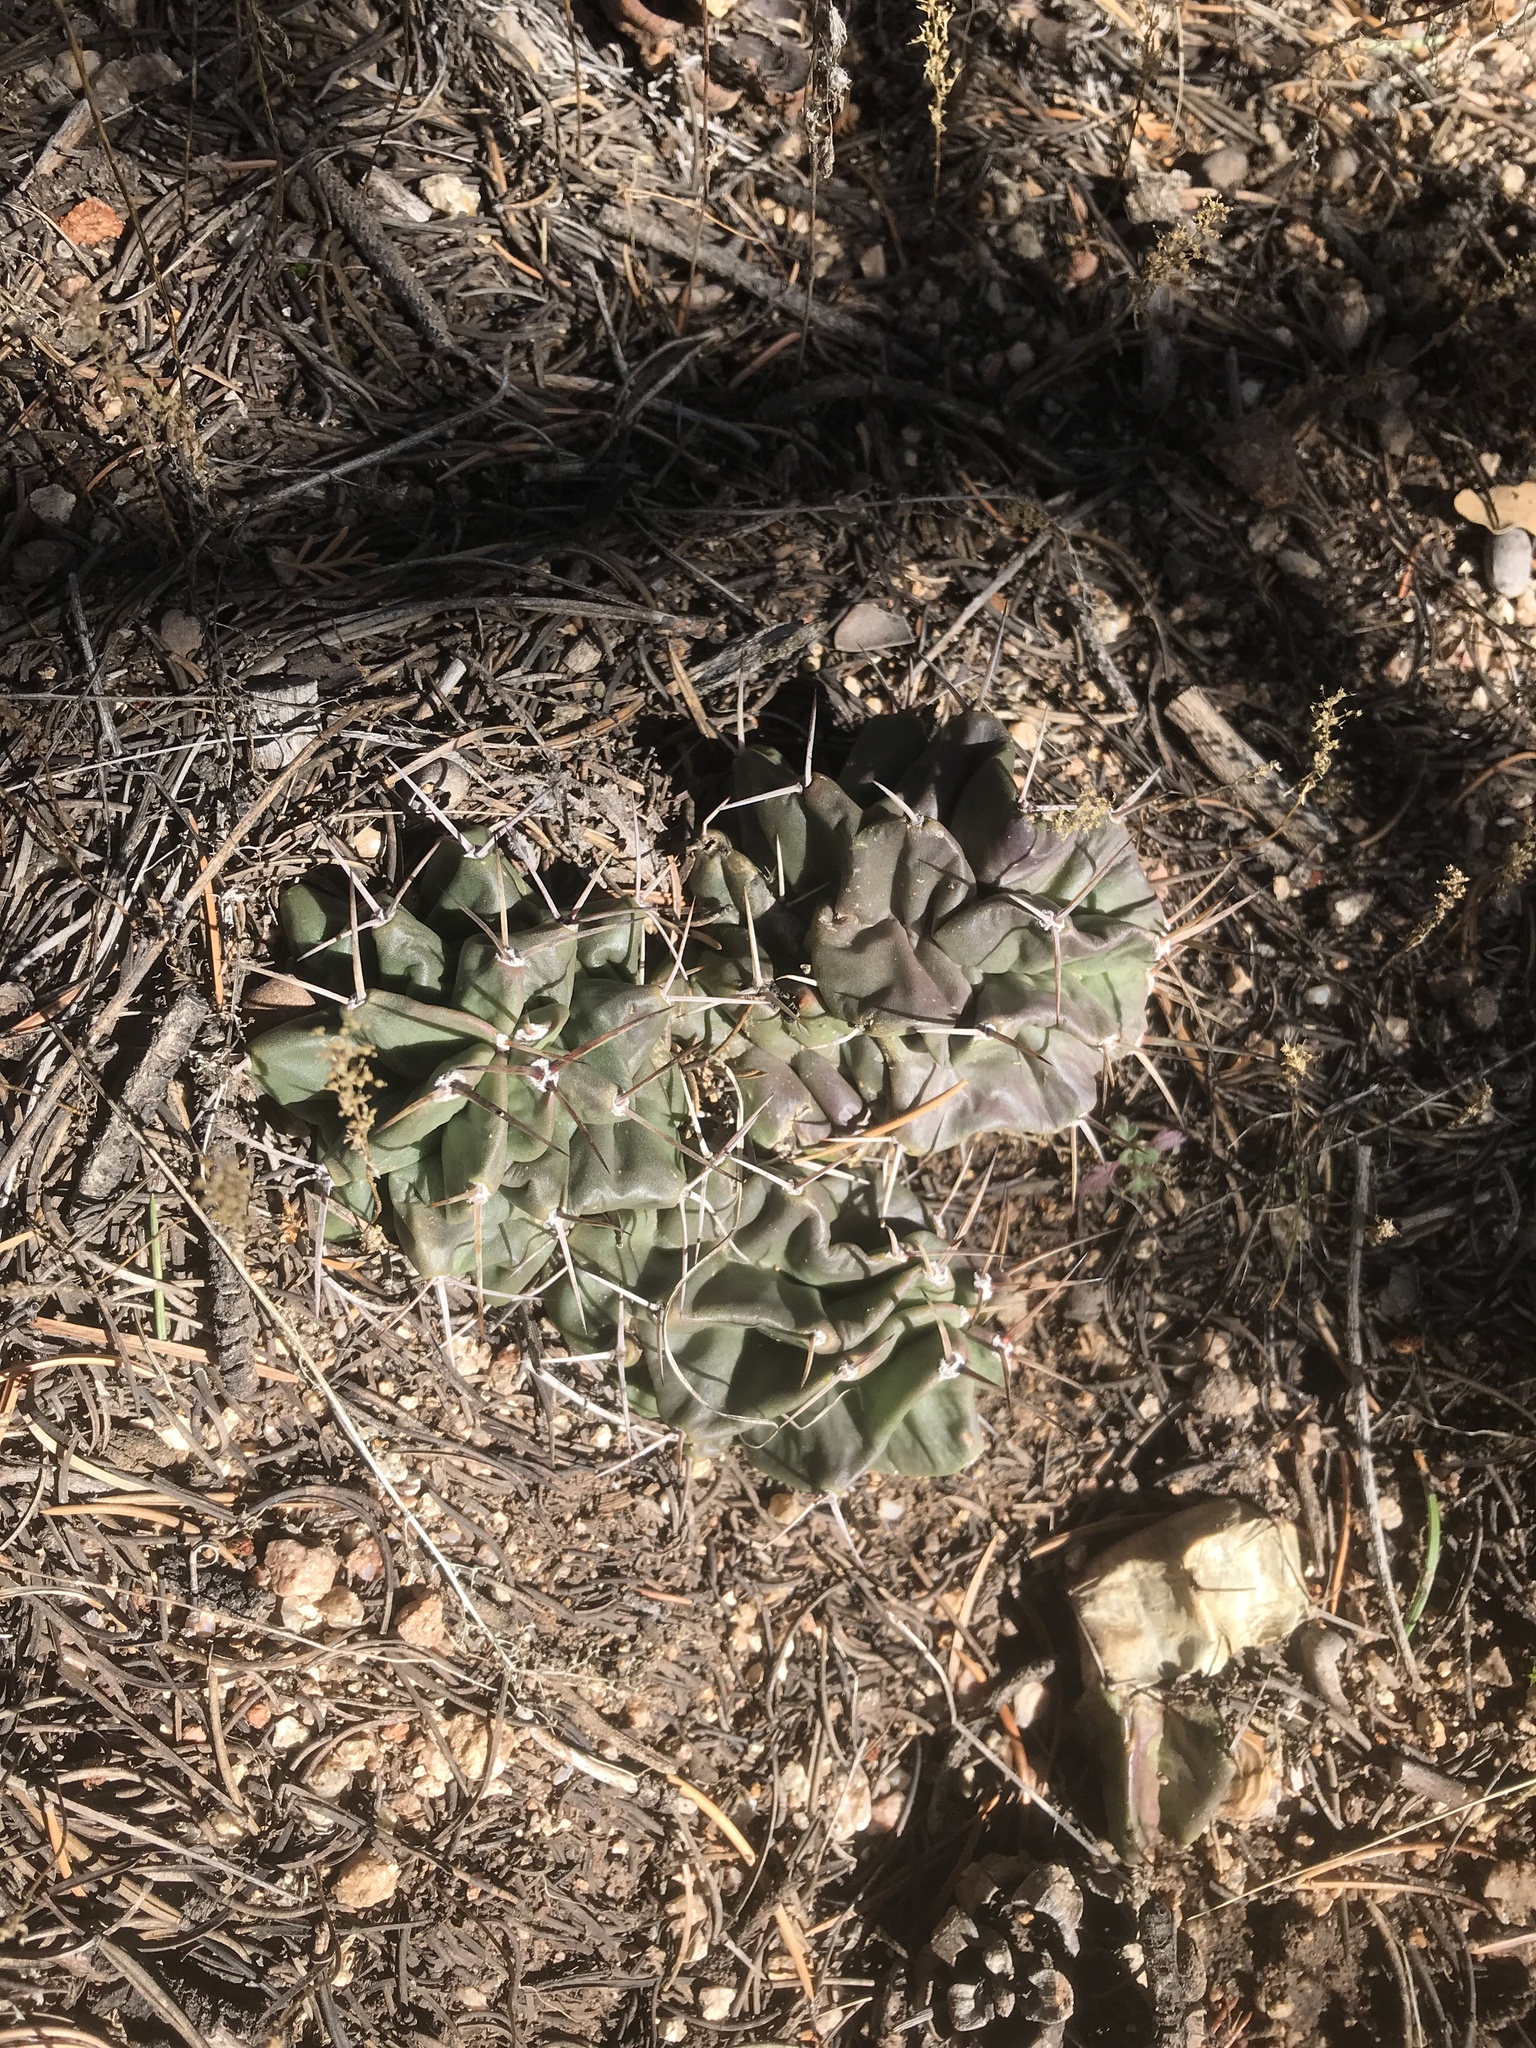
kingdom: Plantae
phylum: Tracheophyta
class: Magnoliopsida
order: Caryophyllales
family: Cactaceae
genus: Echinocereus
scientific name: Echinocereus triglochidiatus
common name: Claretcup hedgehog
